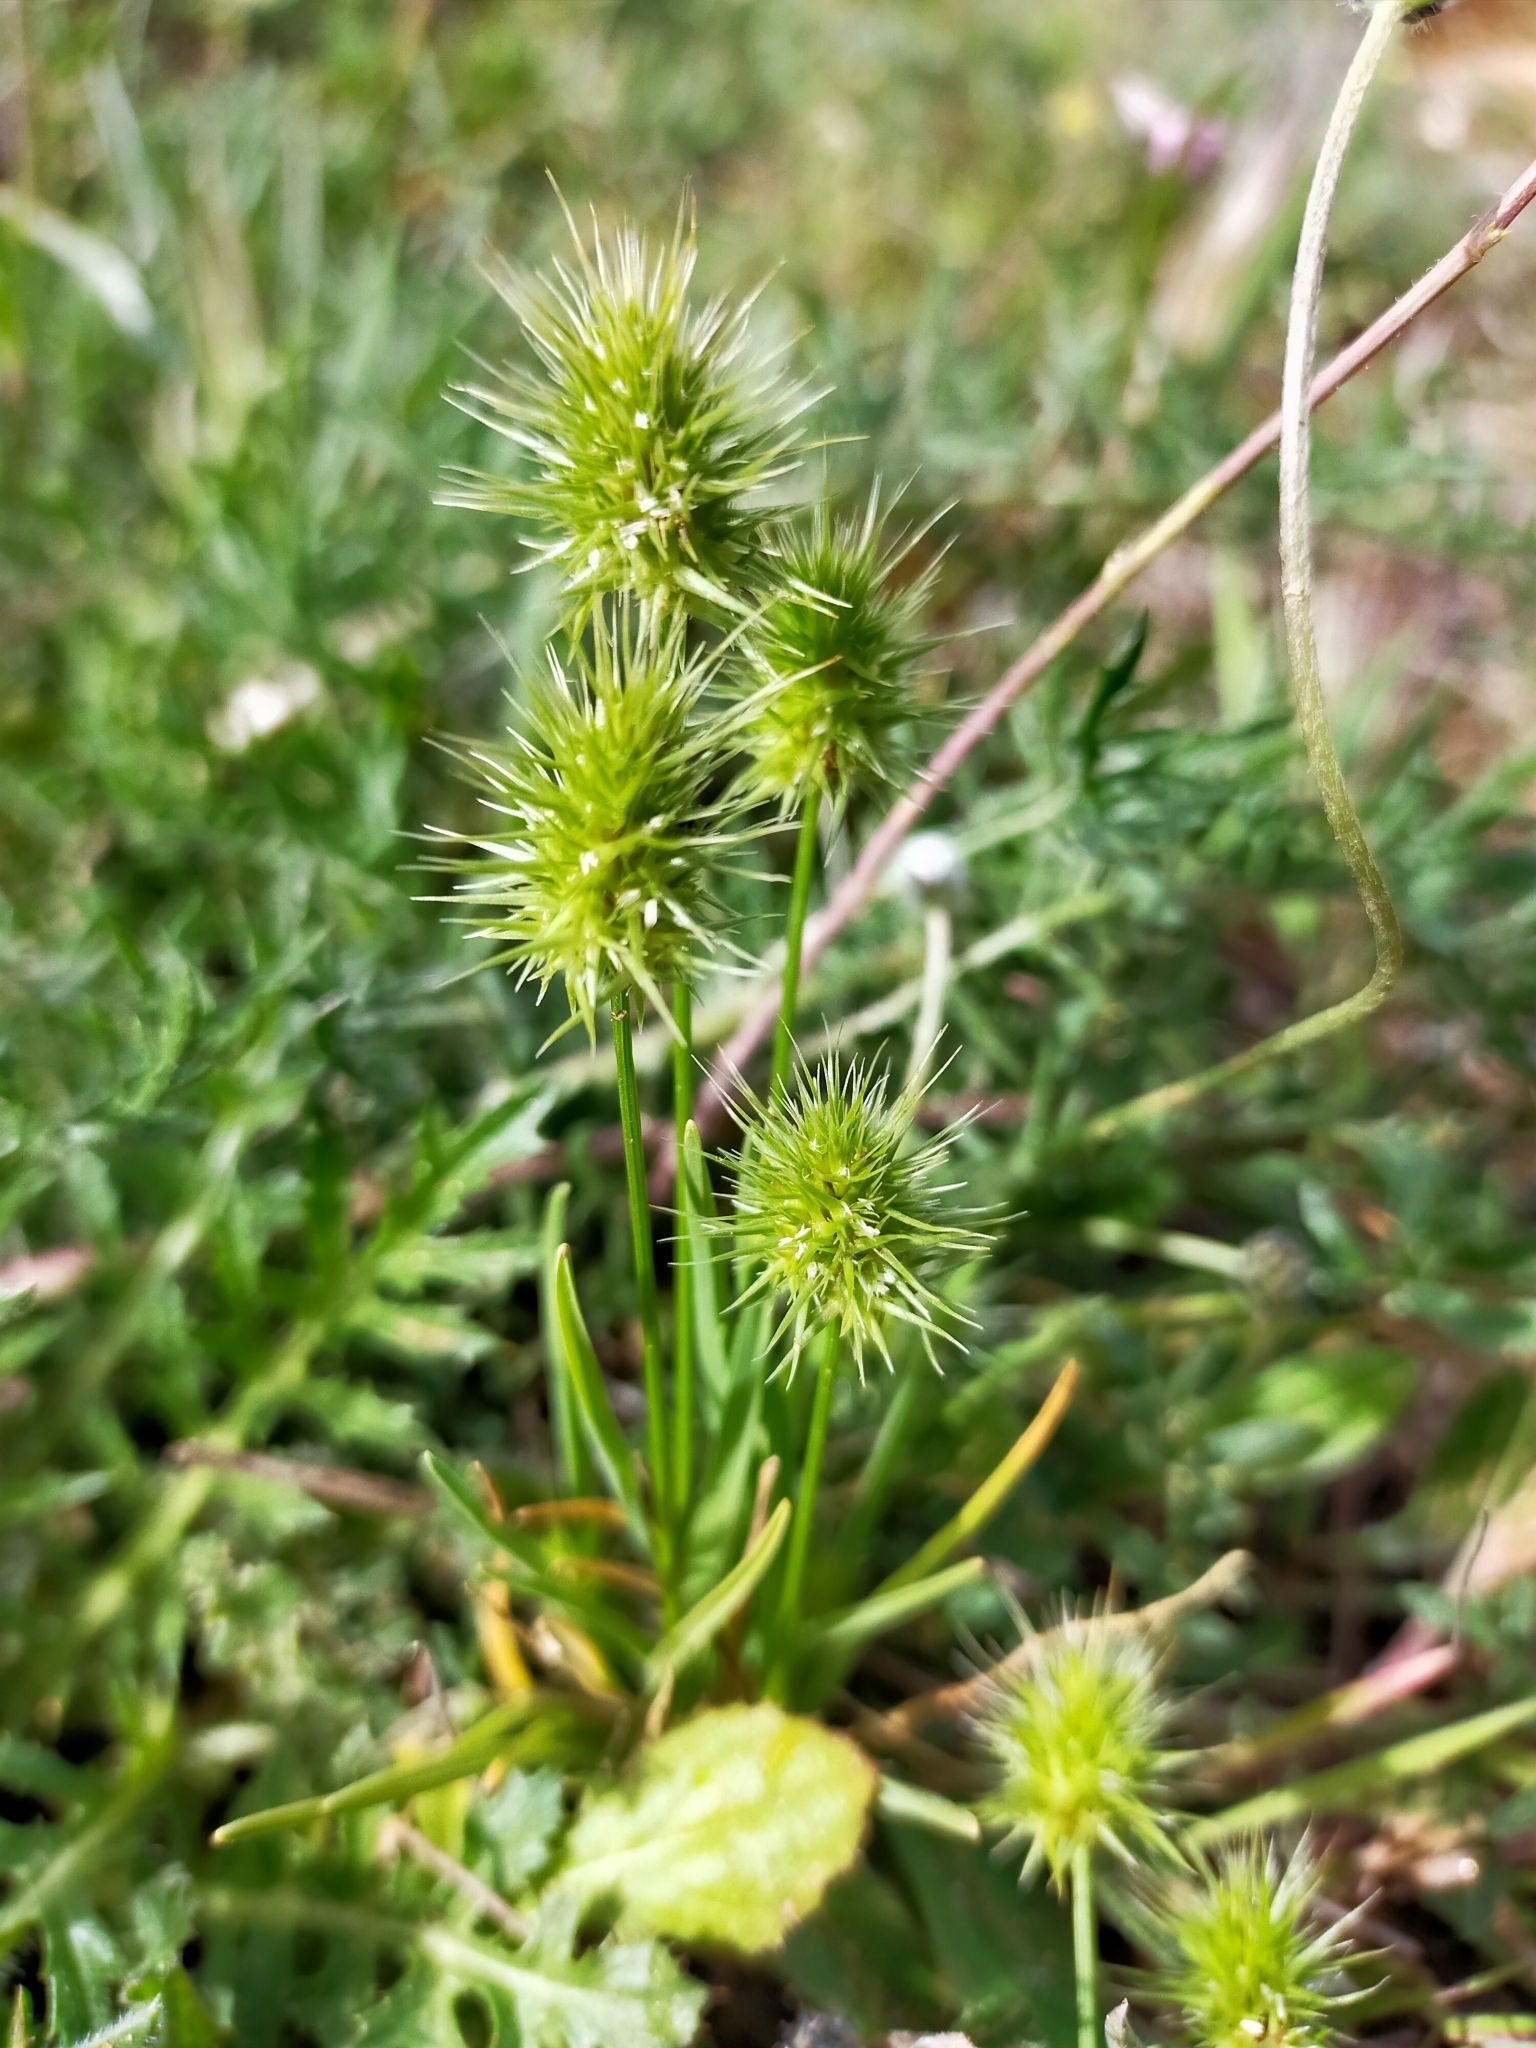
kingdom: Plantae
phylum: Tracheophyta
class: Liliopsida
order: Poales
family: Poaceae
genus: Echinaria
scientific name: Echinaria capitata
